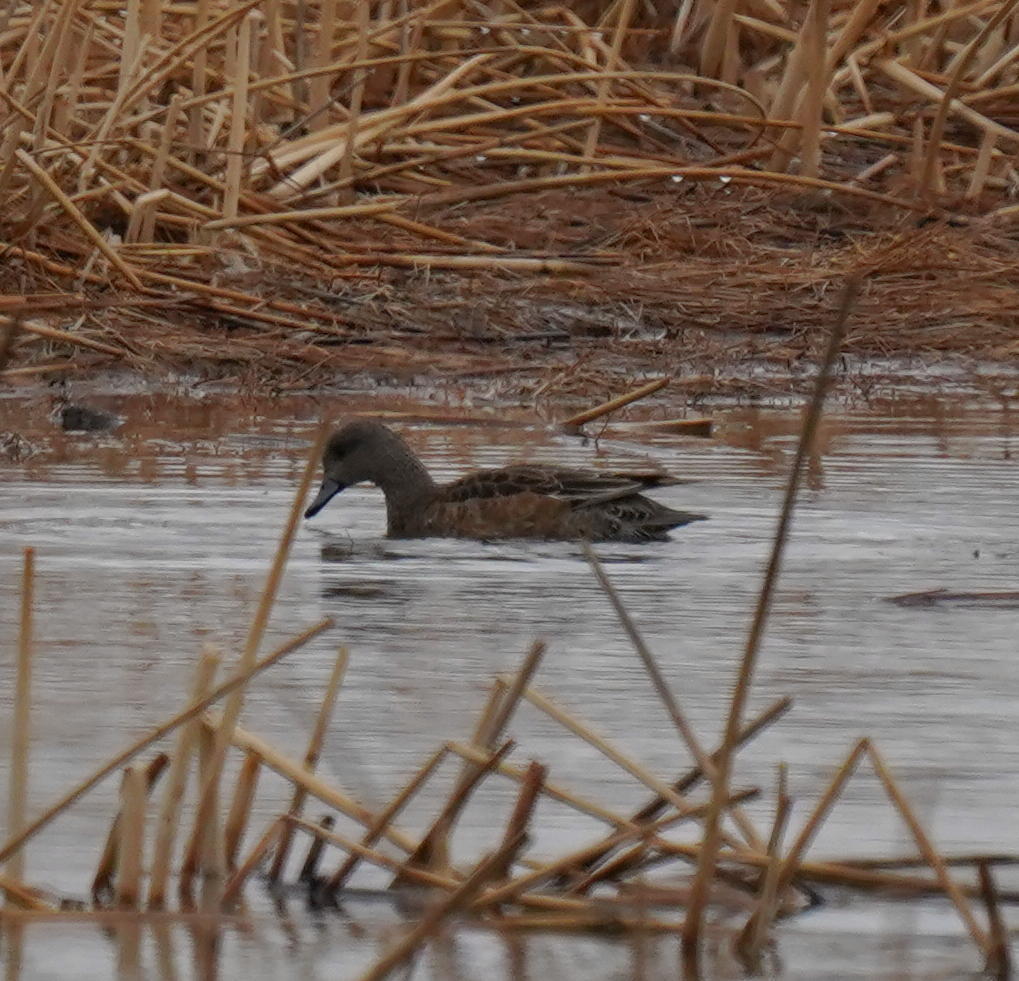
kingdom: Animalia
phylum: Chordata
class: Aves
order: Anseriformes
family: Anatidae
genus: Mareca
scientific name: Mareca americana
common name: American wigeon
